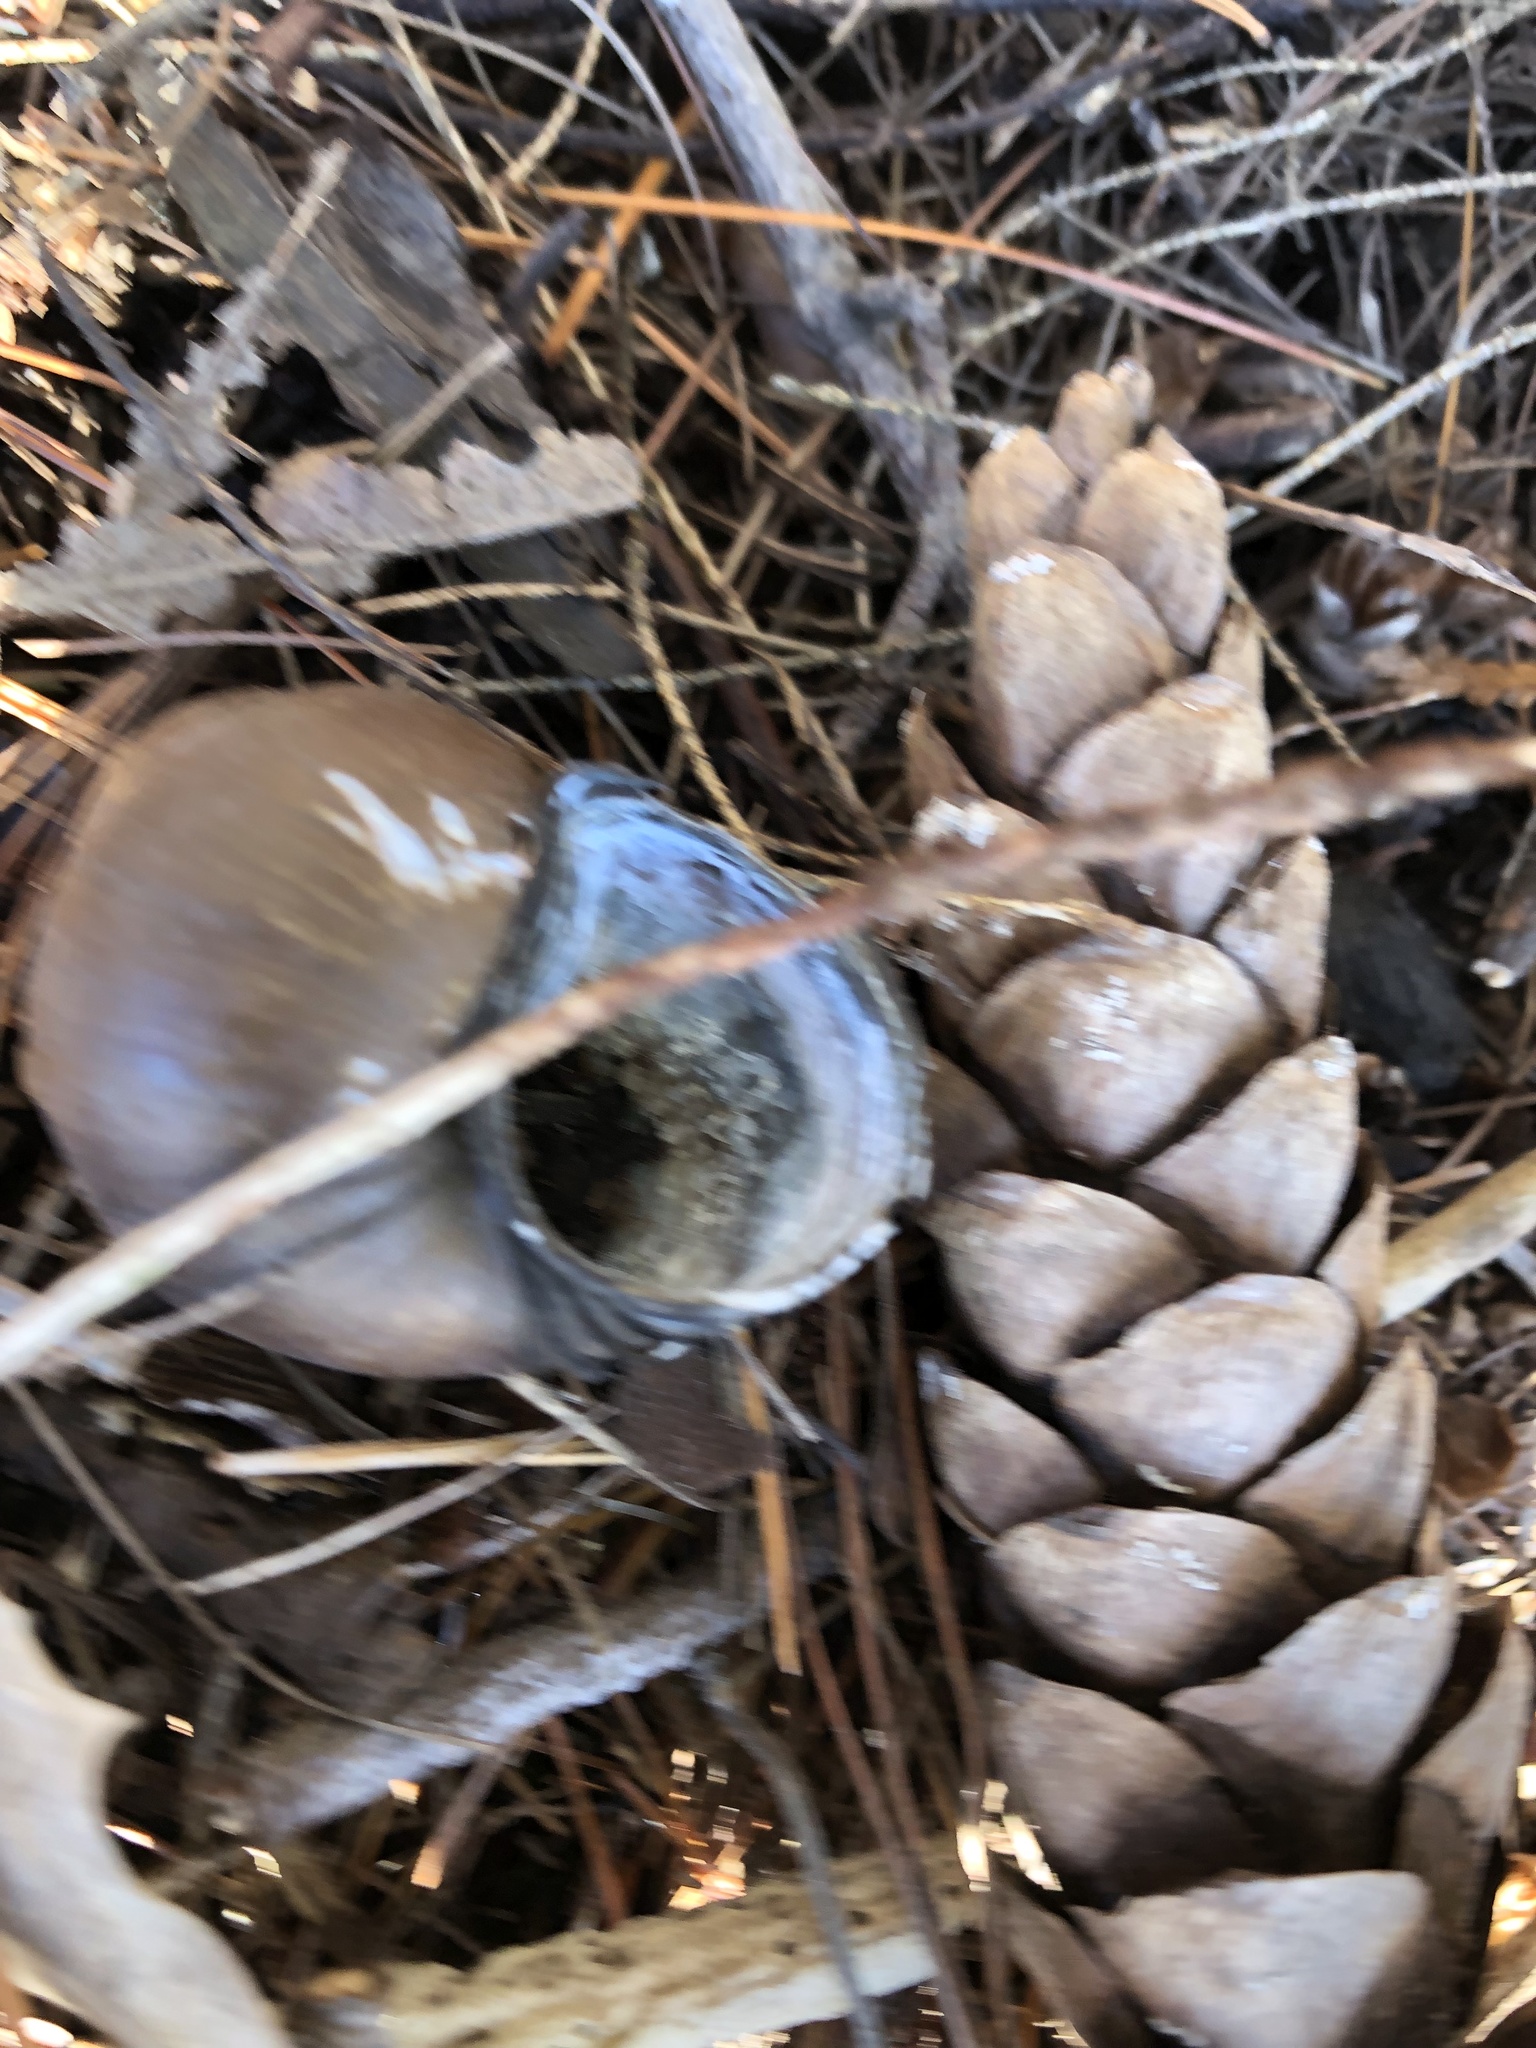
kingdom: Animalia
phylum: Mollusca
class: Gastropoda
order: Architaenioglossa
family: Viviparidae
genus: Cipangopaludina
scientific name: Cipangopaludina chinensis
